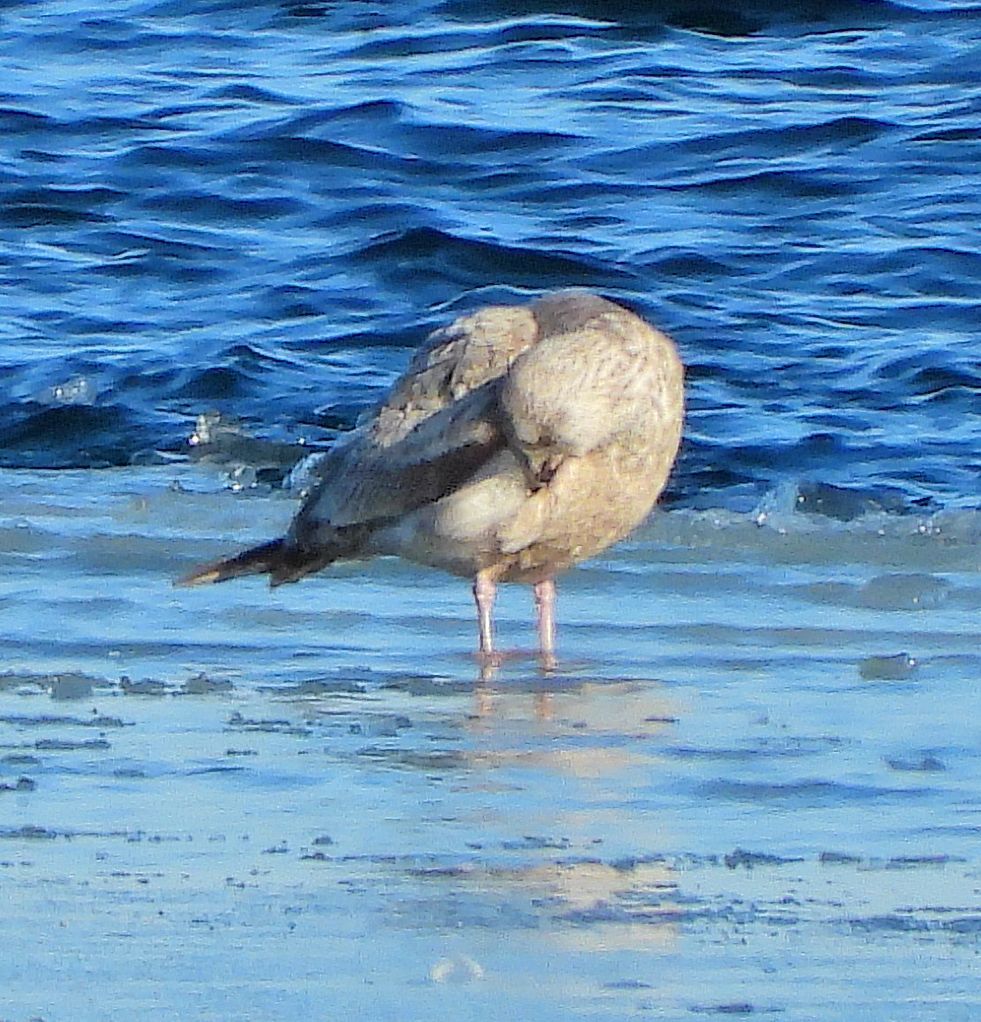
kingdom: Animalia
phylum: Chordata
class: Aves
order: Charadriiformes
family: Laridae
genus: Larus
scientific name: Larus argentatus
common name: Herring gull
